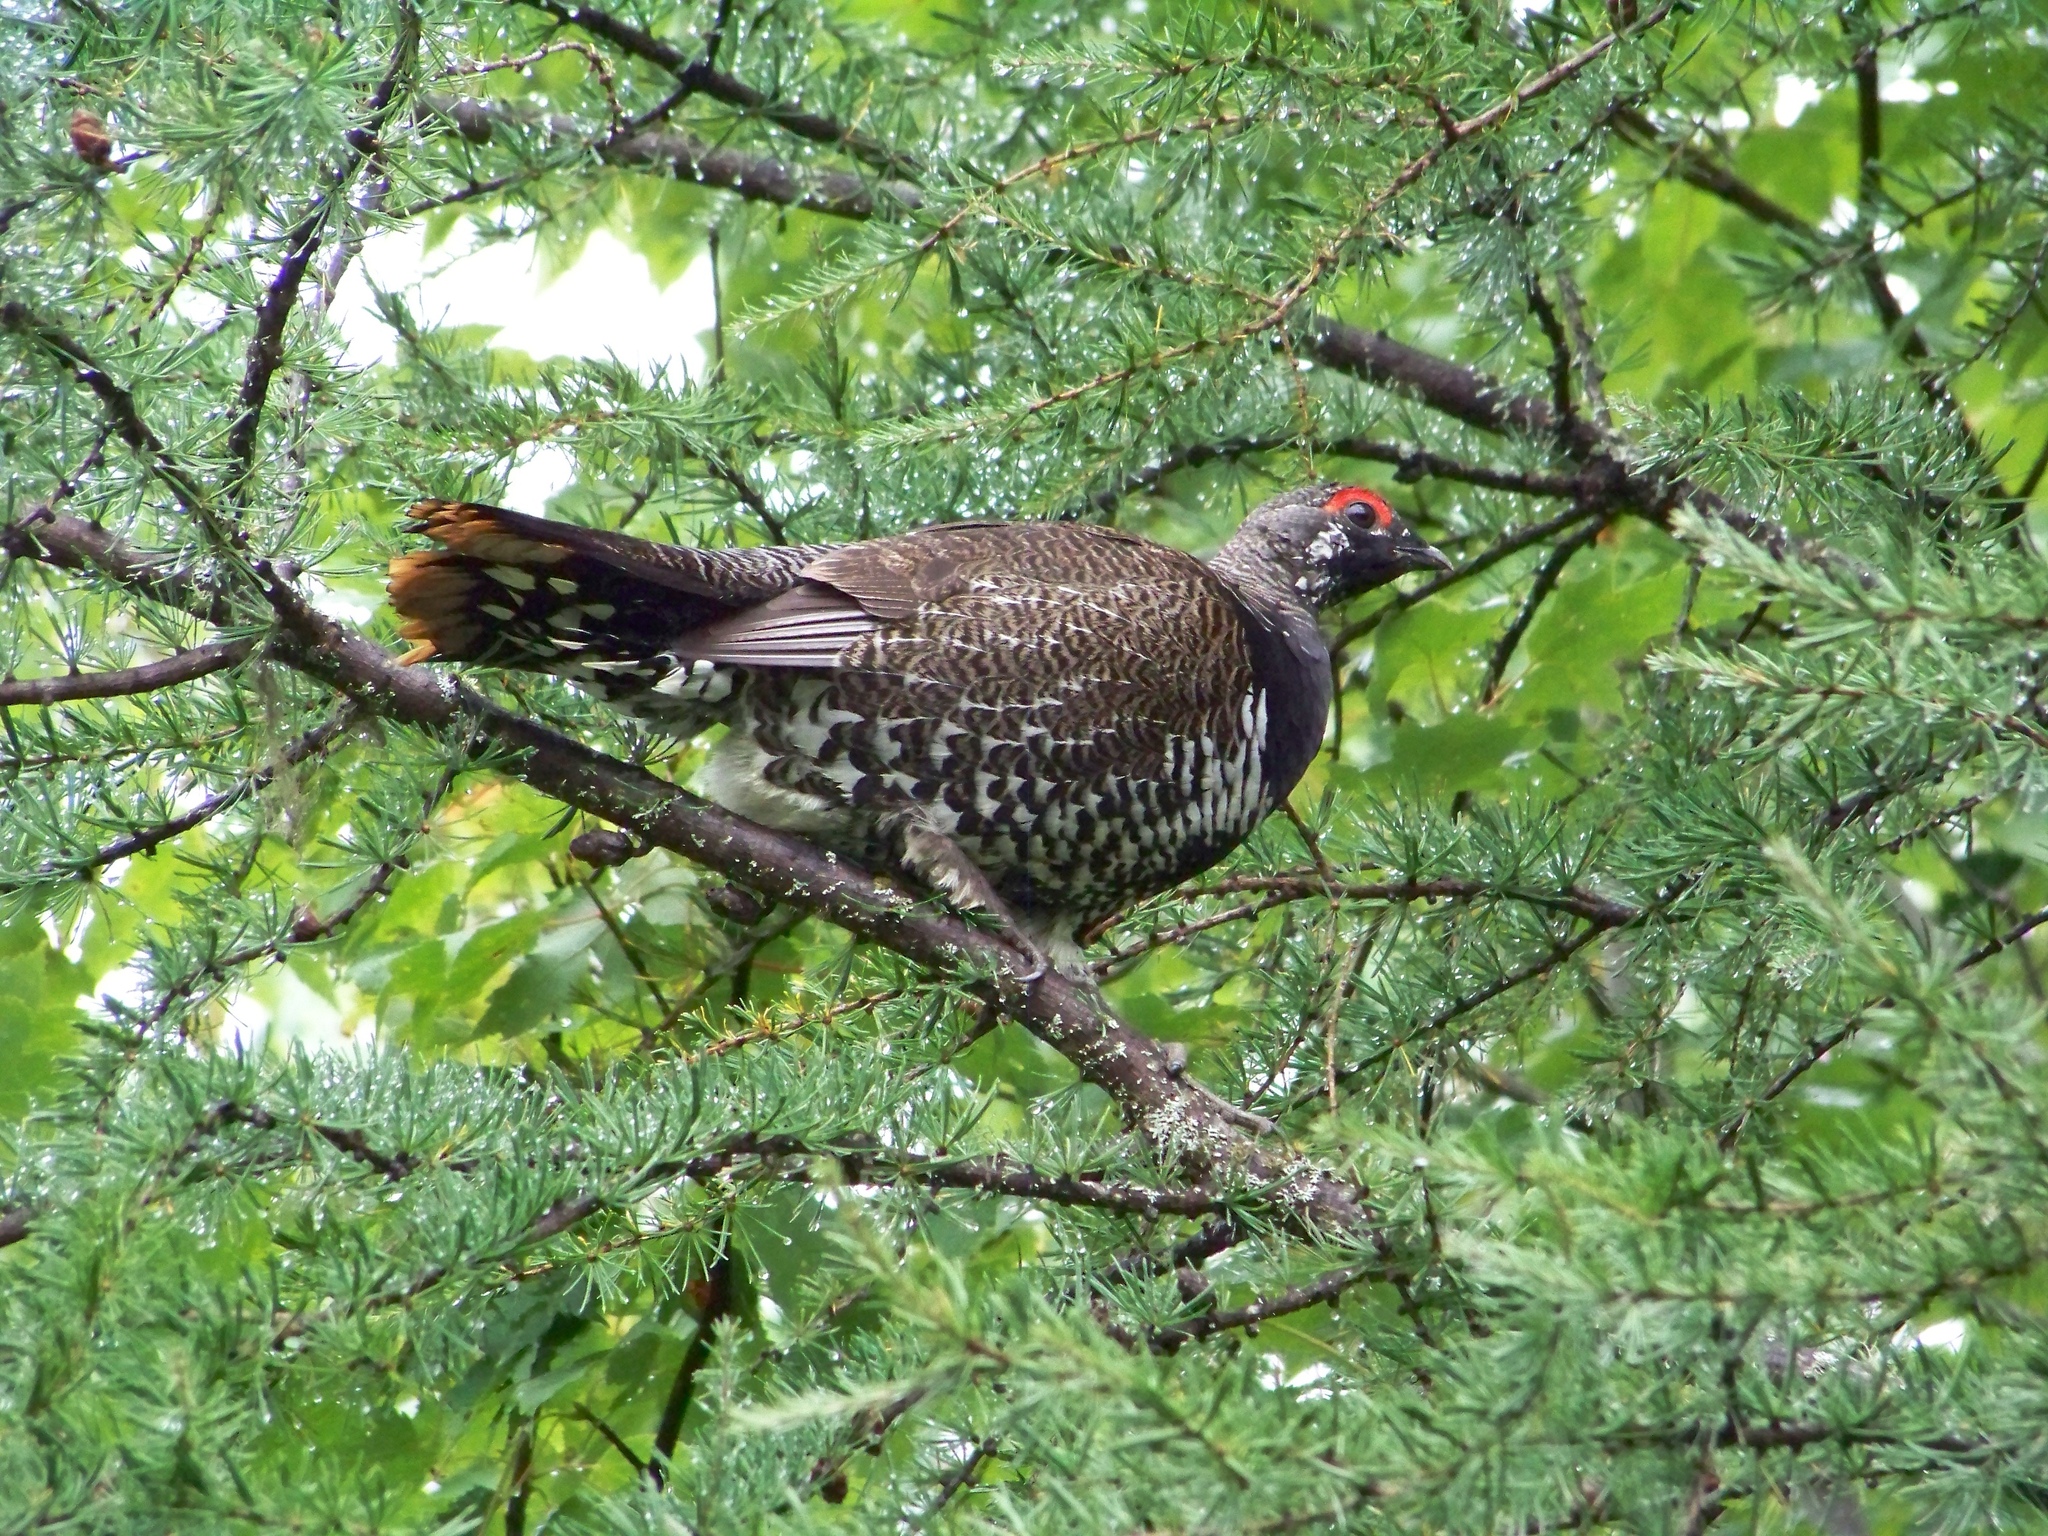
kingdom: Animalia
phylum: Chordata
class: Aves
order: Galliformes
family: Phasianidae
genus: Canachites
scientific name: Canachites canadensis
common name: Spruce grouse
